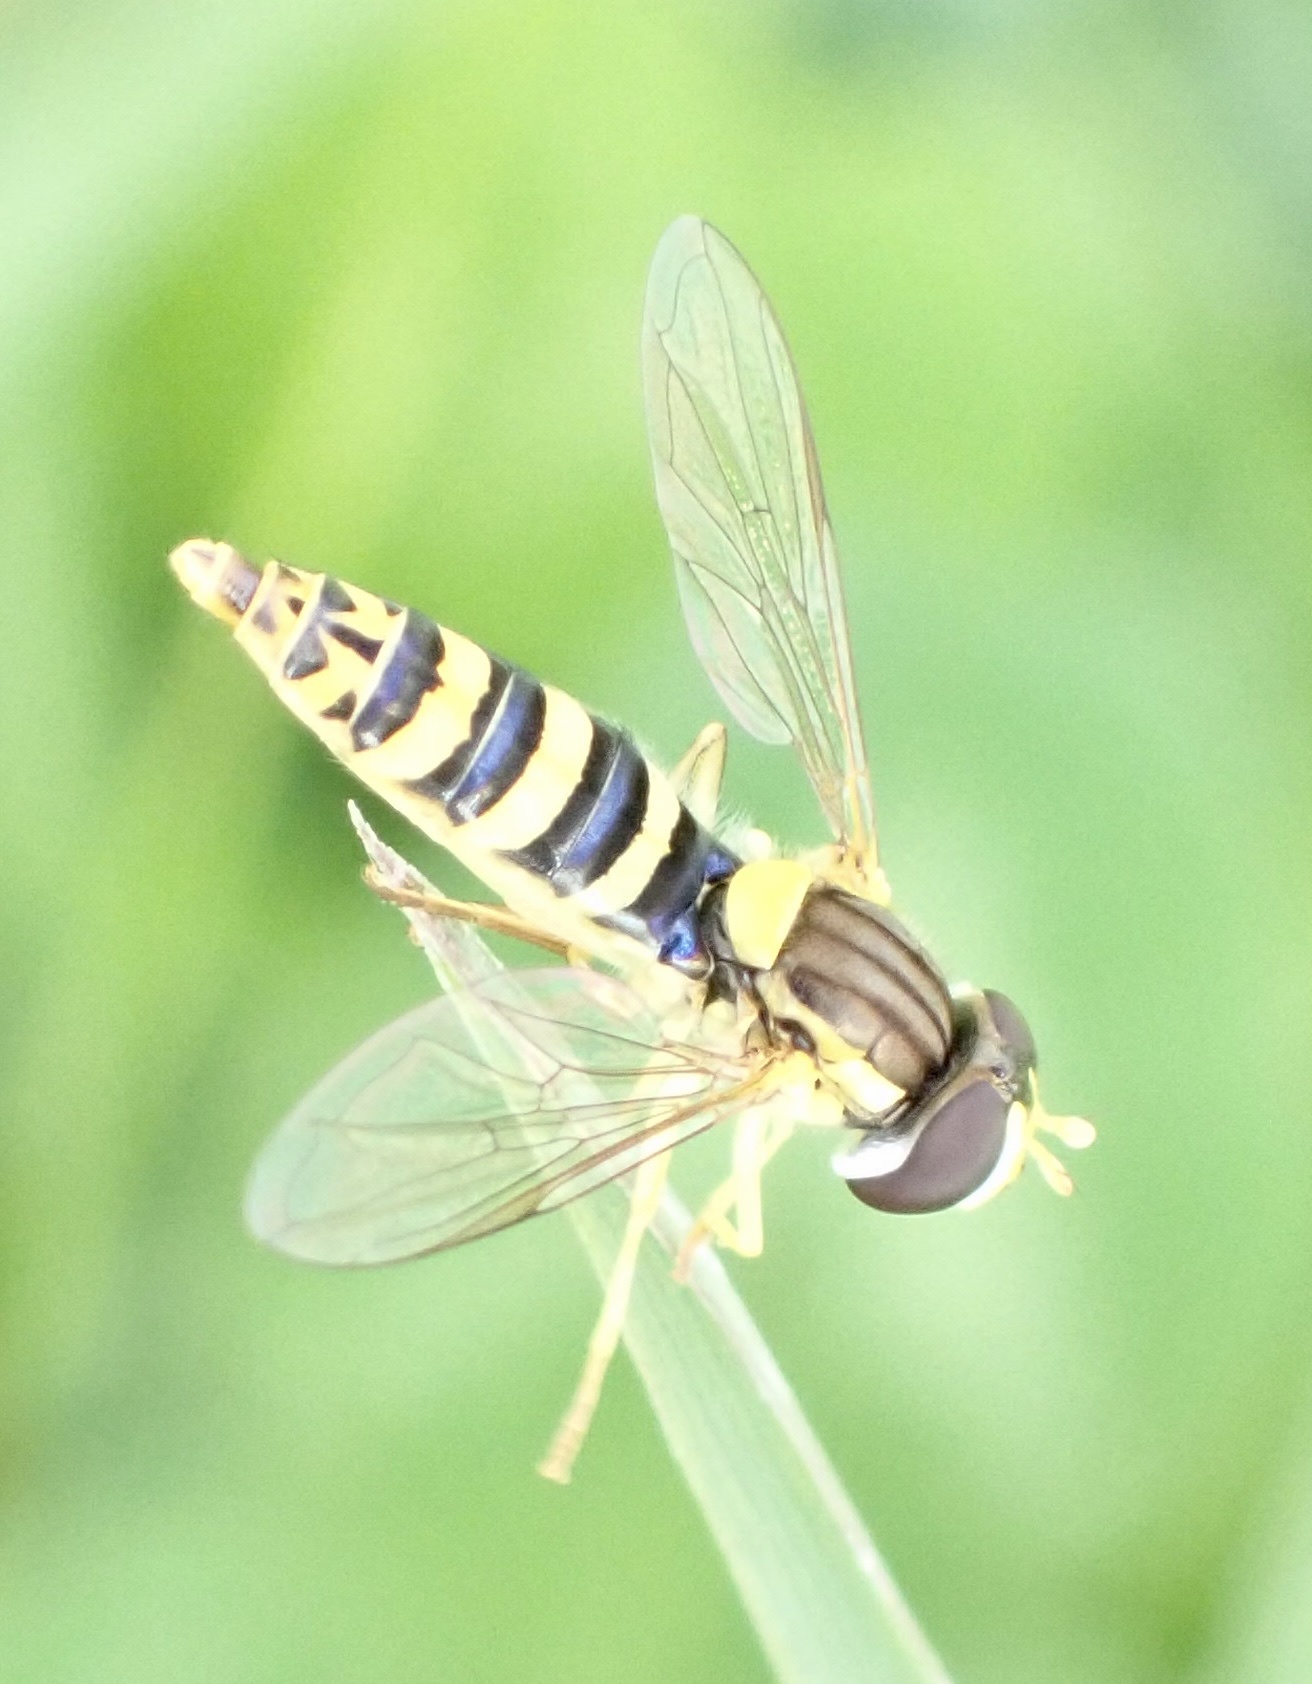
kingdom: Animalia
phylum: Arthropoda
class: Insecta
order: Diptera
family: Syrphidae
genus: Sphaerophoria
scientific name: Sphaerophoria
